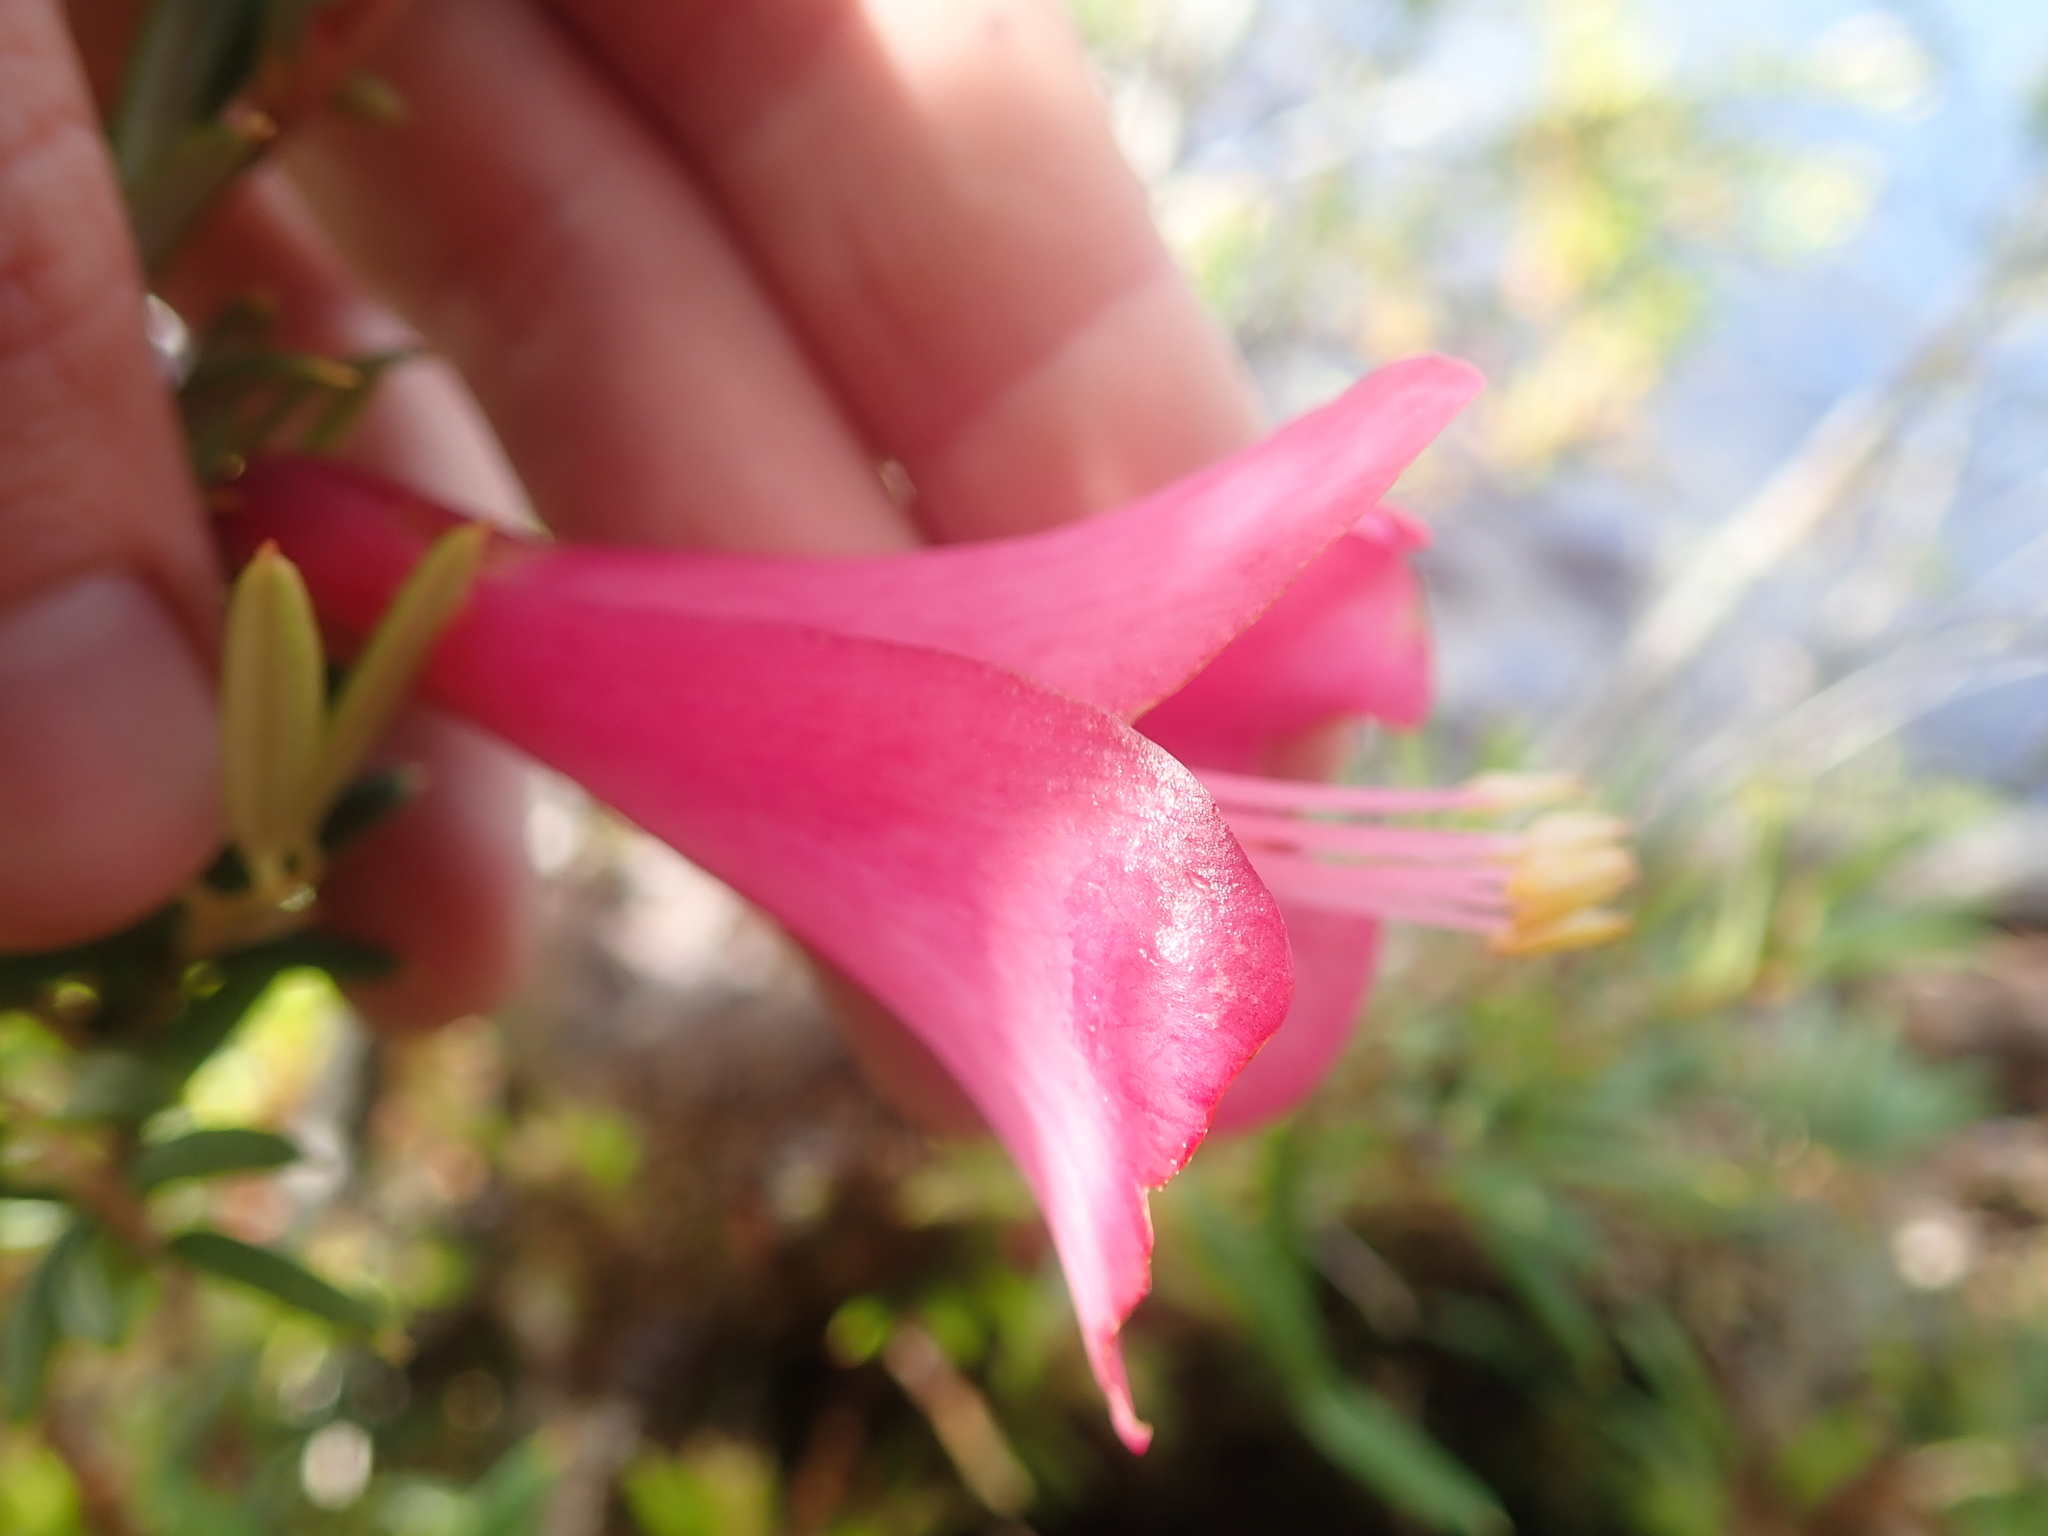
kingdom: Plantae
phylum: Tracheophyta
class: Liliopsida
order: Liliales
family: Philesiaceae
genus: Philesia
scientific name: Philesia magellanica
